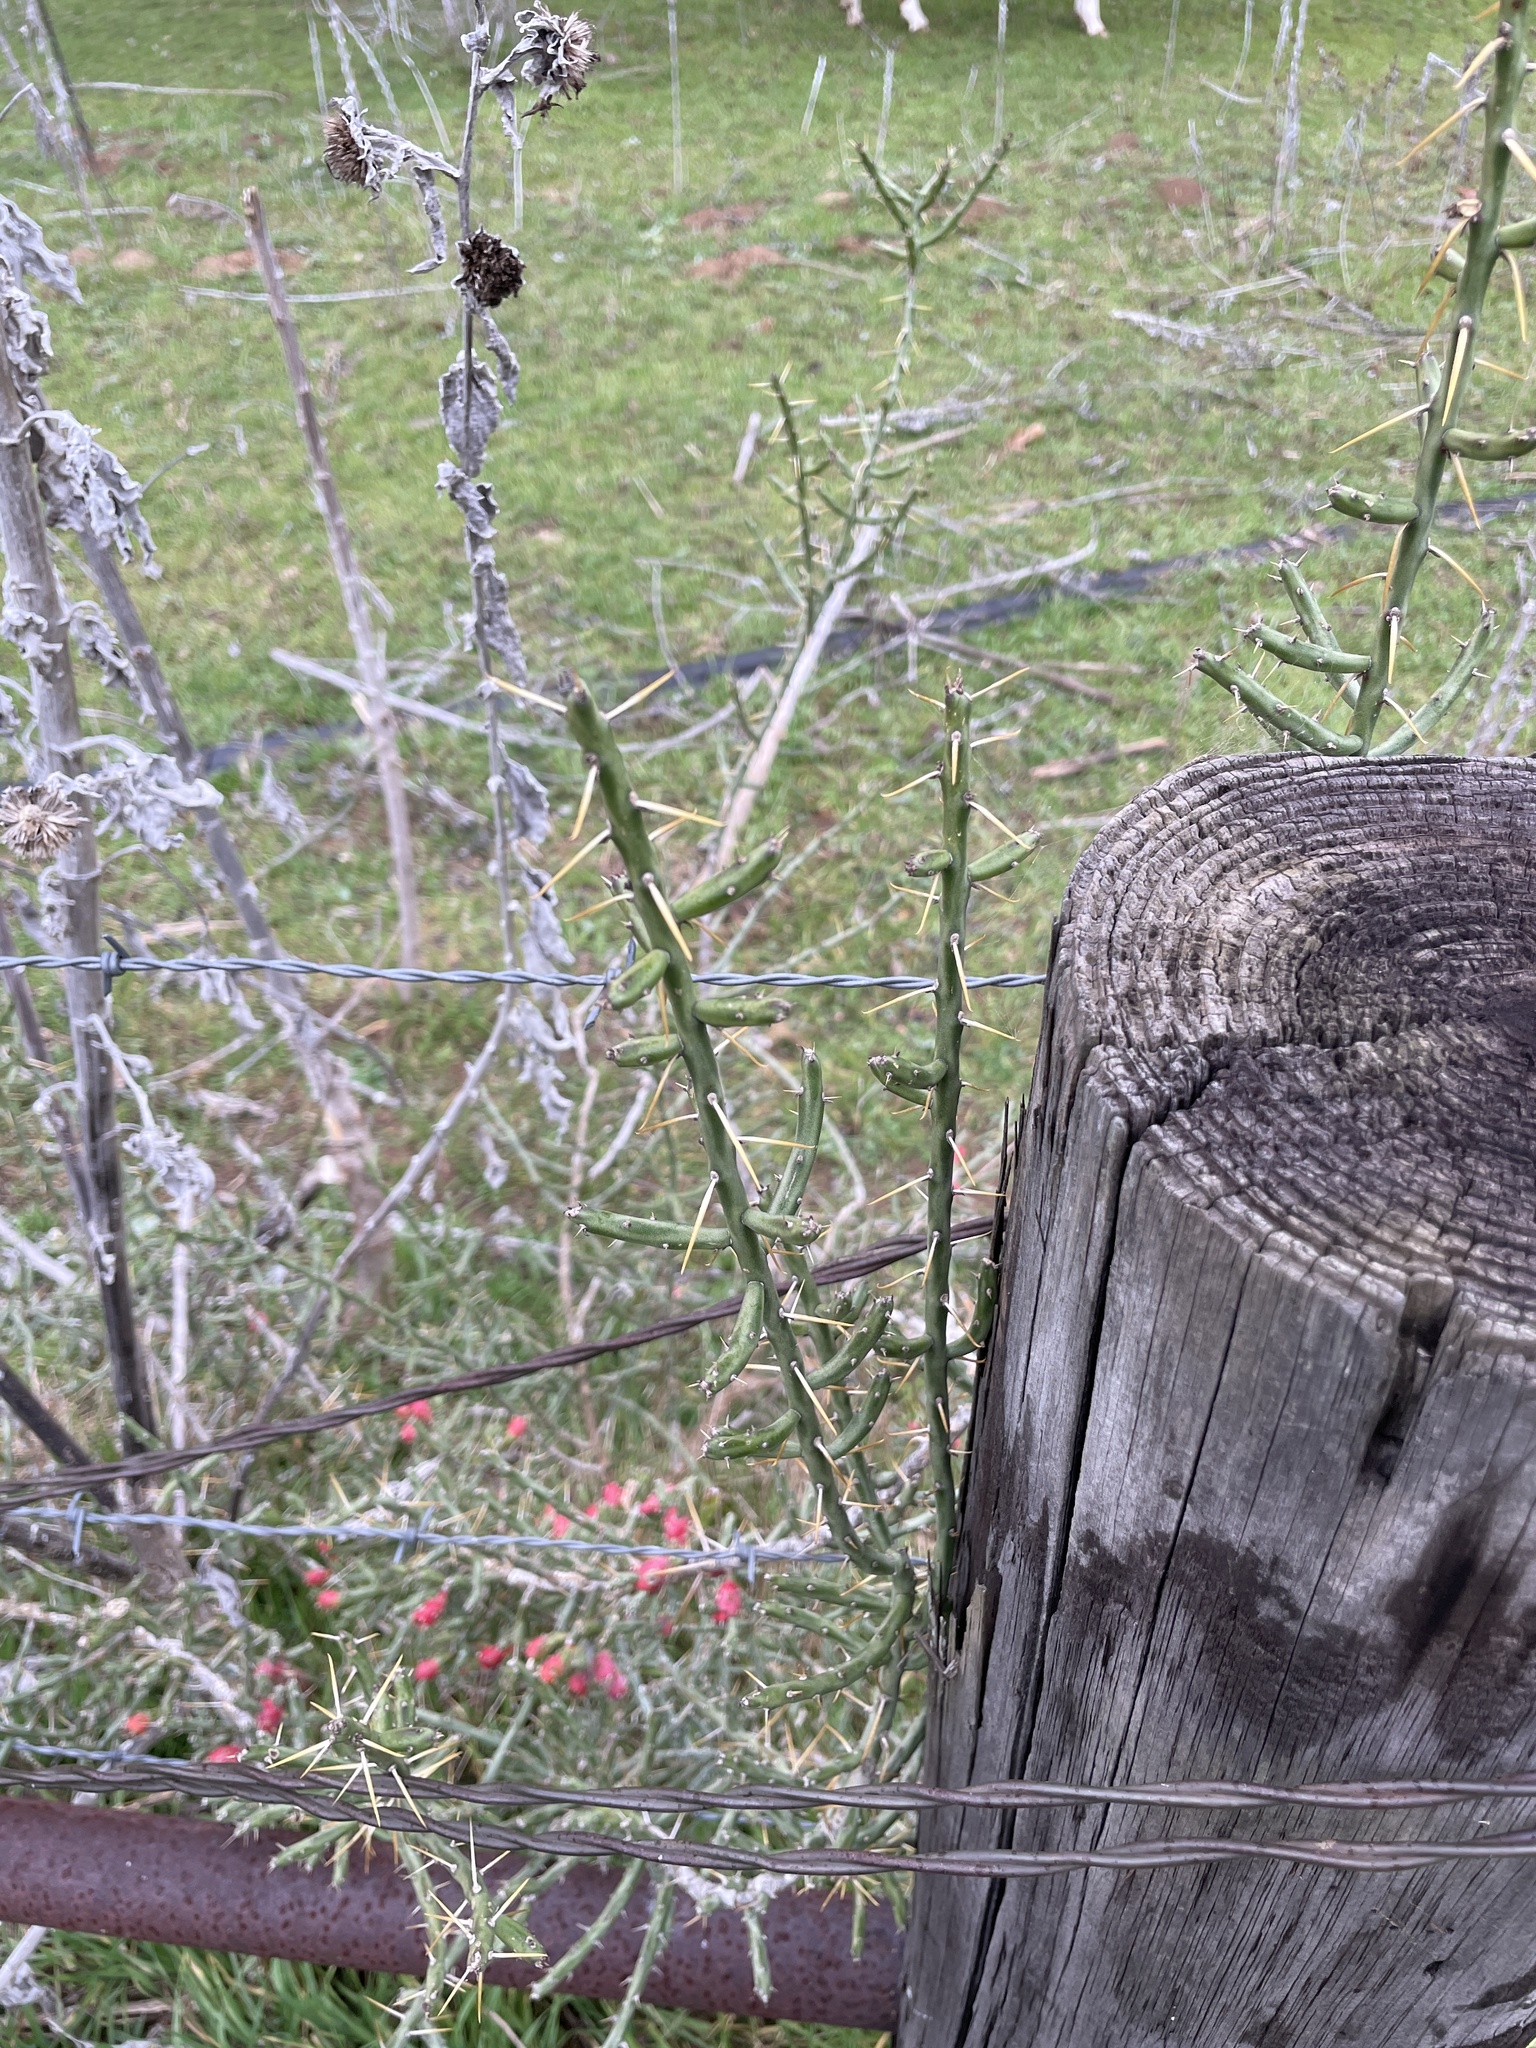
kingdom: Plantae
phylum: Tracheophyta
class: Magnoliopsida
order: Caryophyllales
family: Cactaceae
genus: Cylindropuntia
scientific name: Cylindropuntia leptocaulis
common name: Christmas cactus
